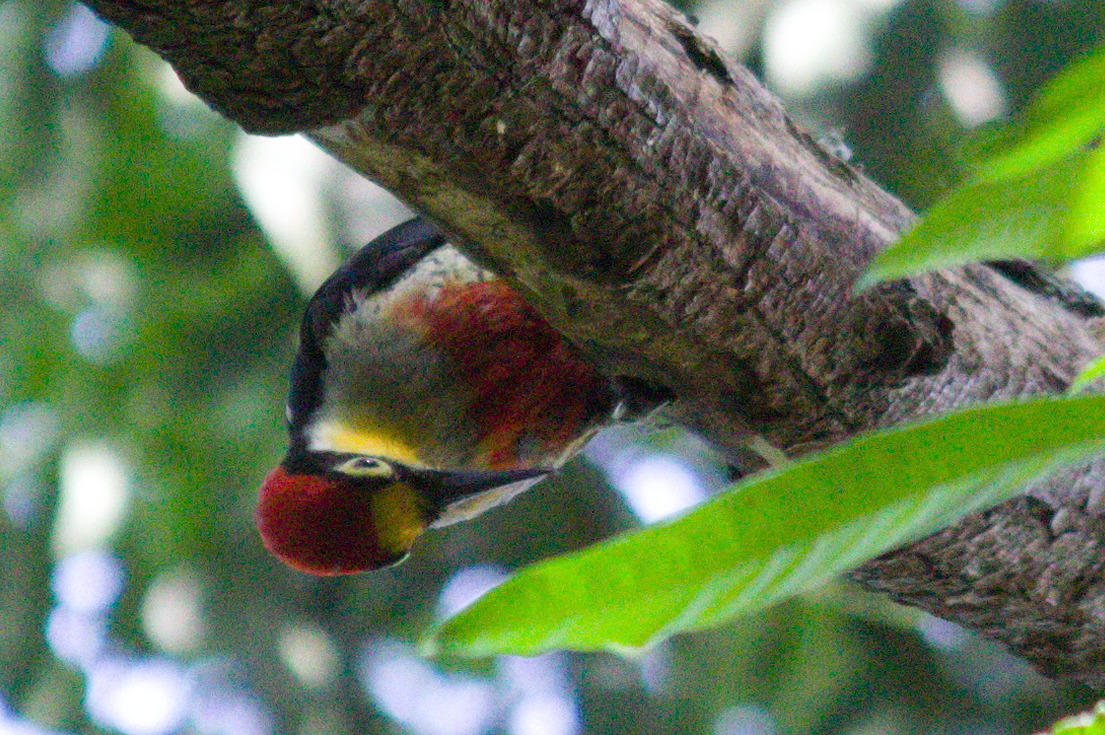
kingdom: Animalia
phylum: Chordata
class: Aves
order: Piciformes
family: Picidae
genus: Melanerpes
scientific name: Melanerpes flavifrons
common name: Yellow-fronted woodpecker
